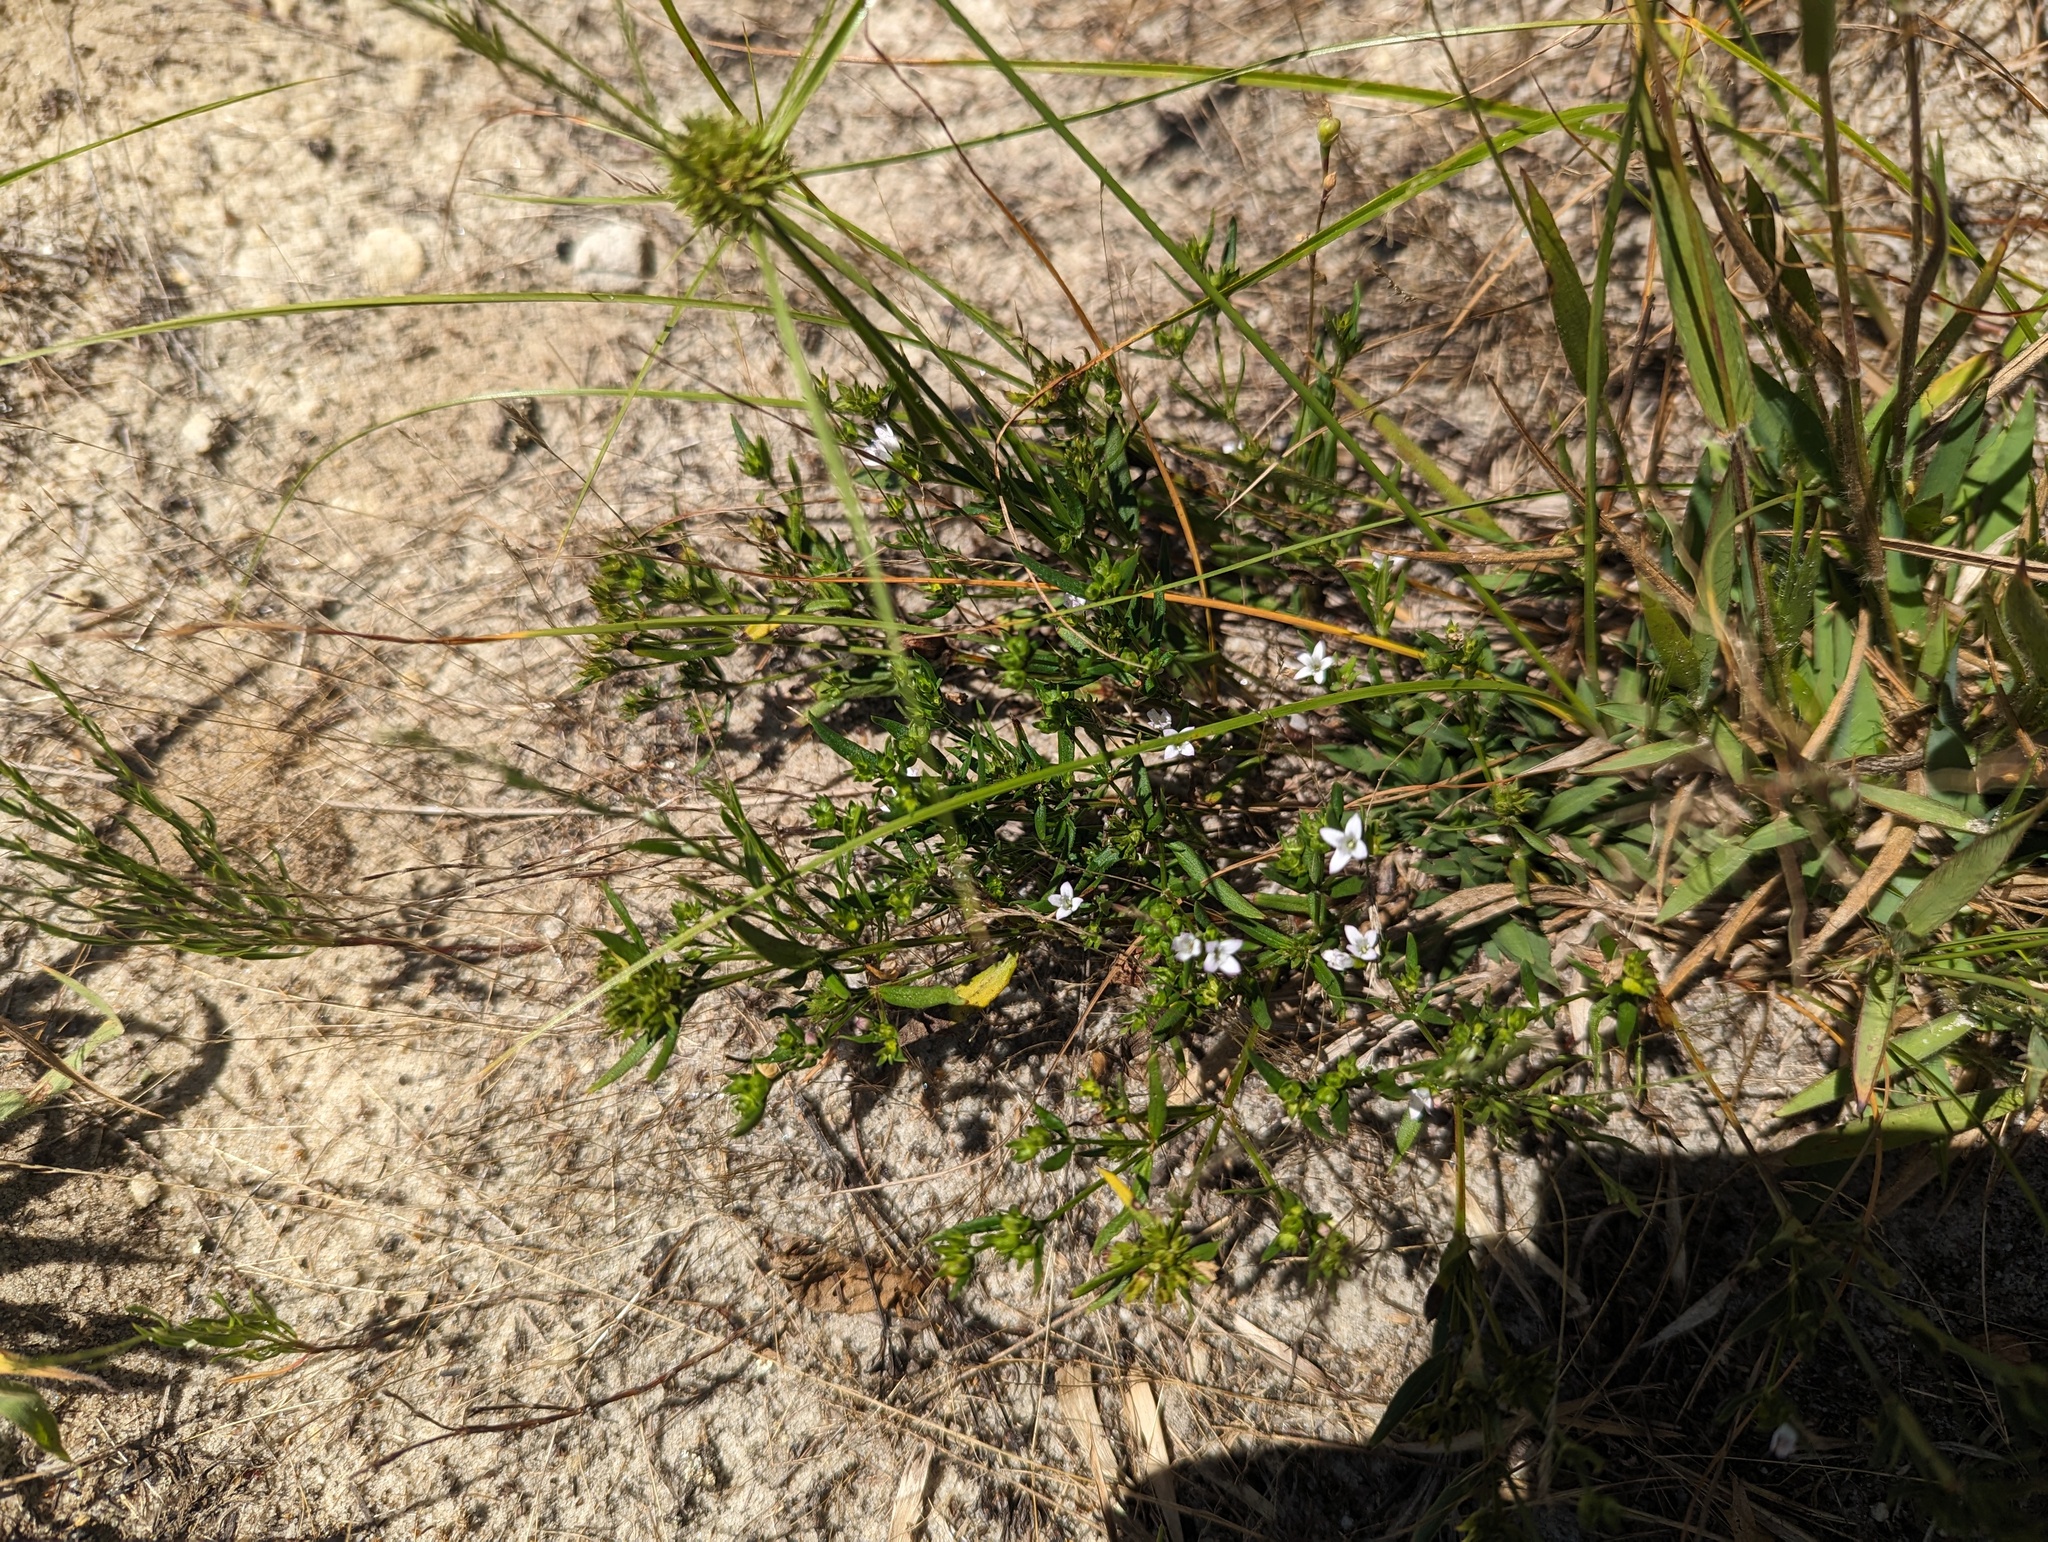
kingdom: Plantae
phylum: Tracheophyta
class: Magnoliopsida
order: Gentianales
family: Rubiaceae
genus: Houstonia
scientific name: Houstonia canadensis
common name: Fringed houstonia
